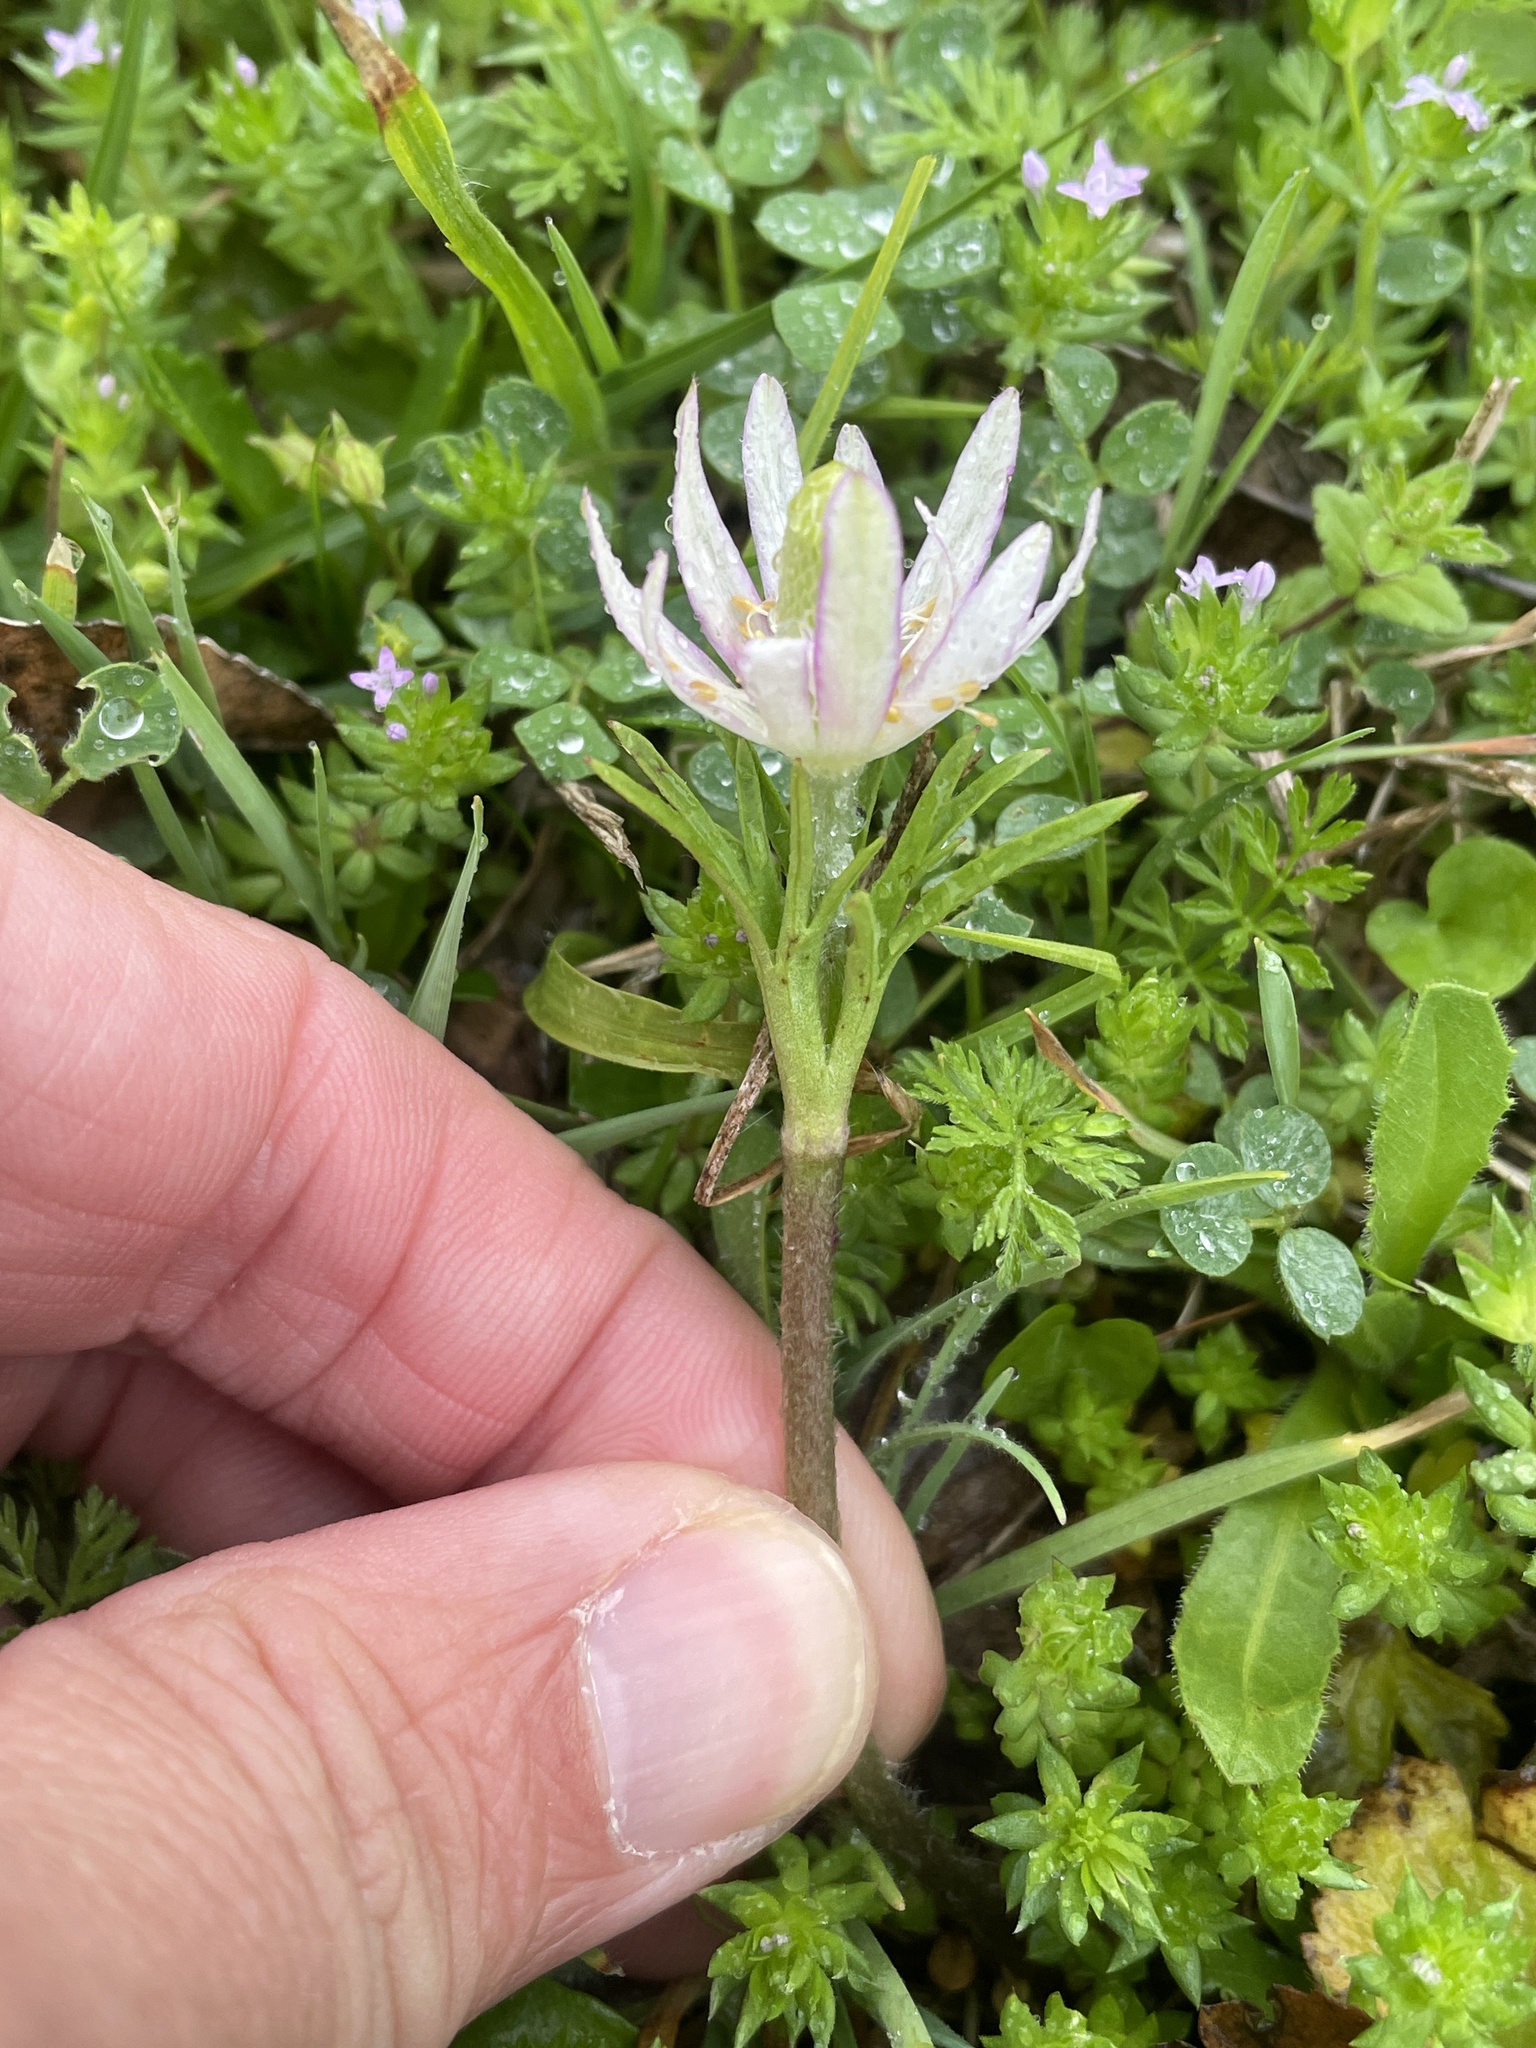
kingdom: Plantae
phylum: Tracheophyta
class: Magnoliopsida
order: Ranunculales
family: Ranunculaceae
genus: Anemone
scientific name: Anemone berlandieri
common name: Ten-petal anemone
